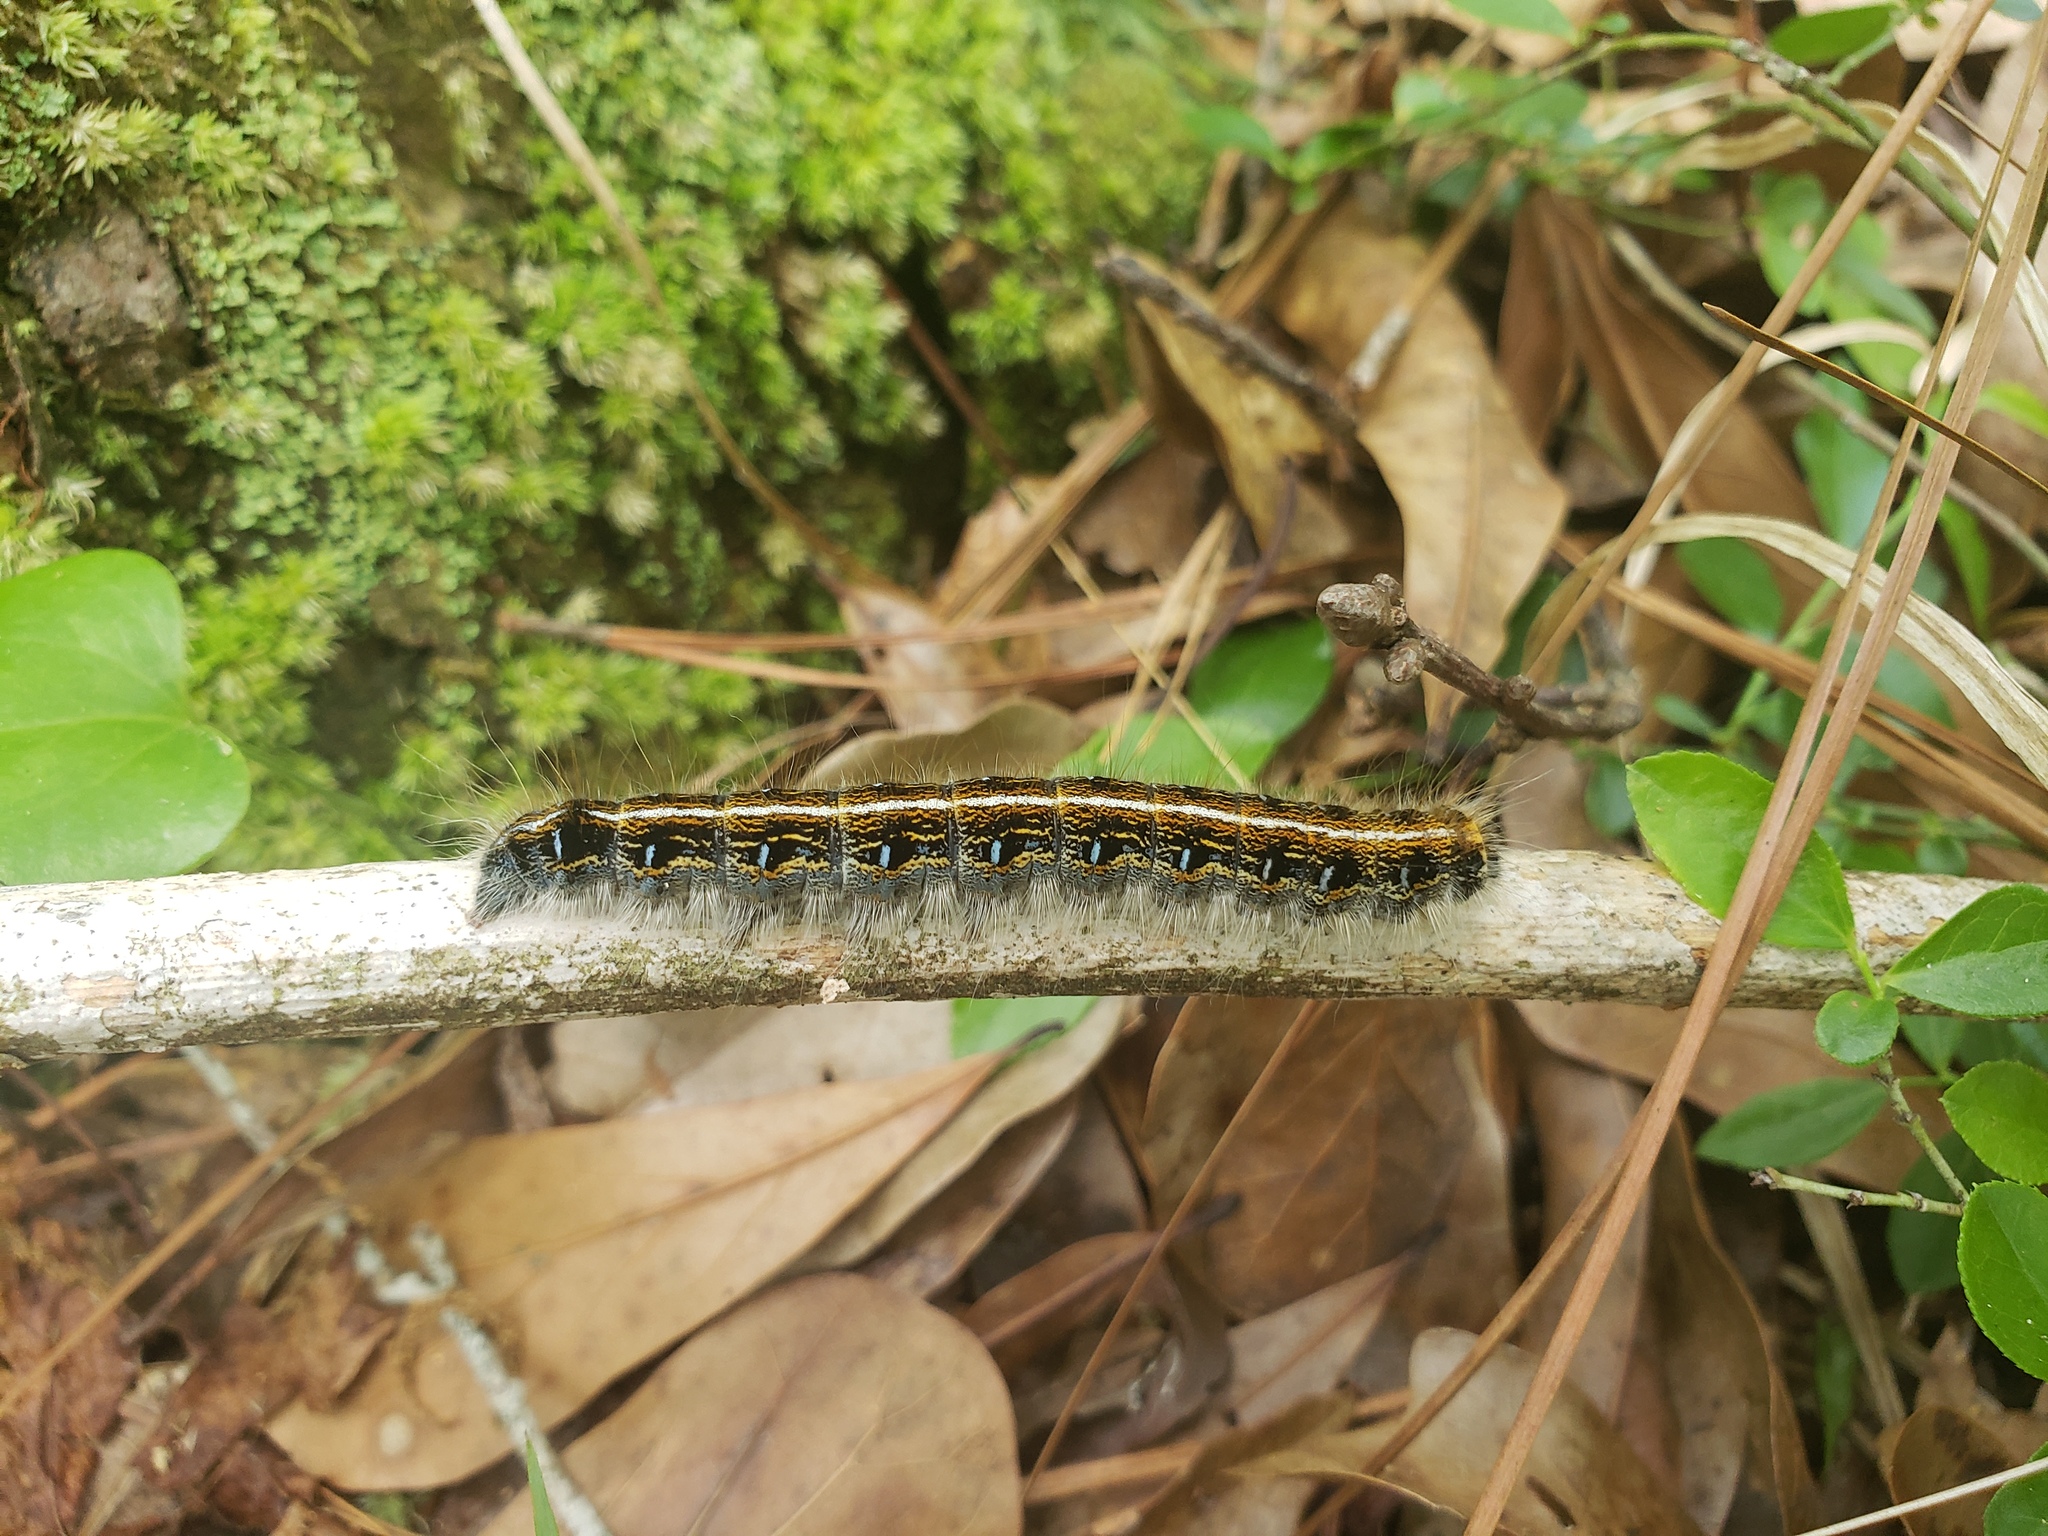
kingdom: Animalia
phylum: Arthropoda
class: Insecta
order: Lepidoptera
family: Lasiocampidae
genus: Malacosoma
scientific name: Malacosoma americana
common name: Eastern tent caterpillar moth
